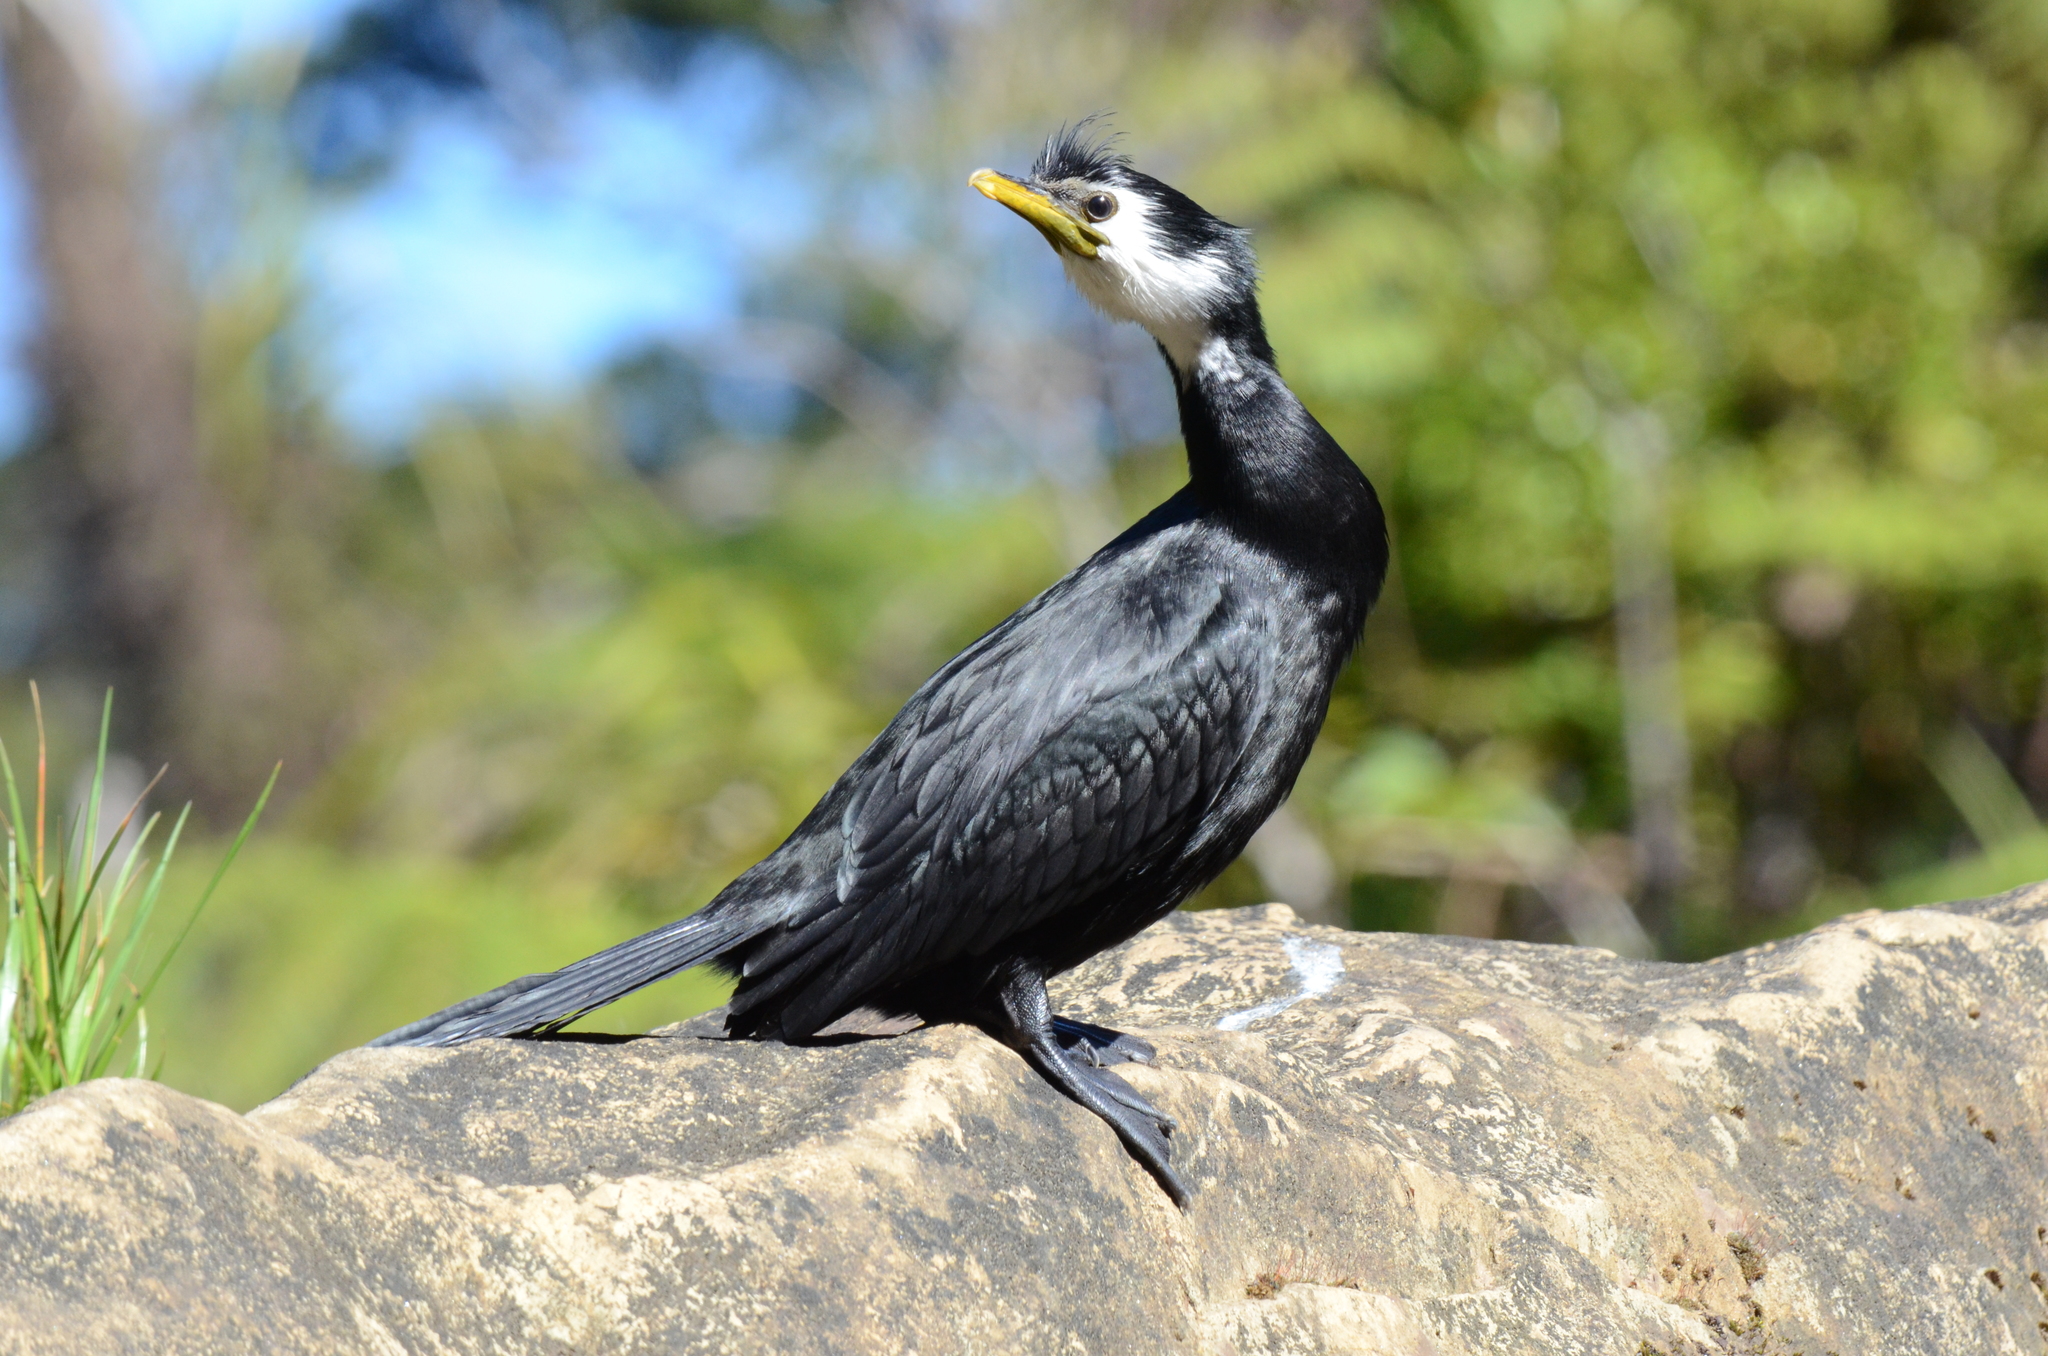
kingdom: Animalia
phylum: Chordata
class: Aves
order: Suliformes
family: Phalacrocoracidae
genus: Microcarbo
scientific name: Microcarbo melanoleucos
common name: Little pied cormorant
